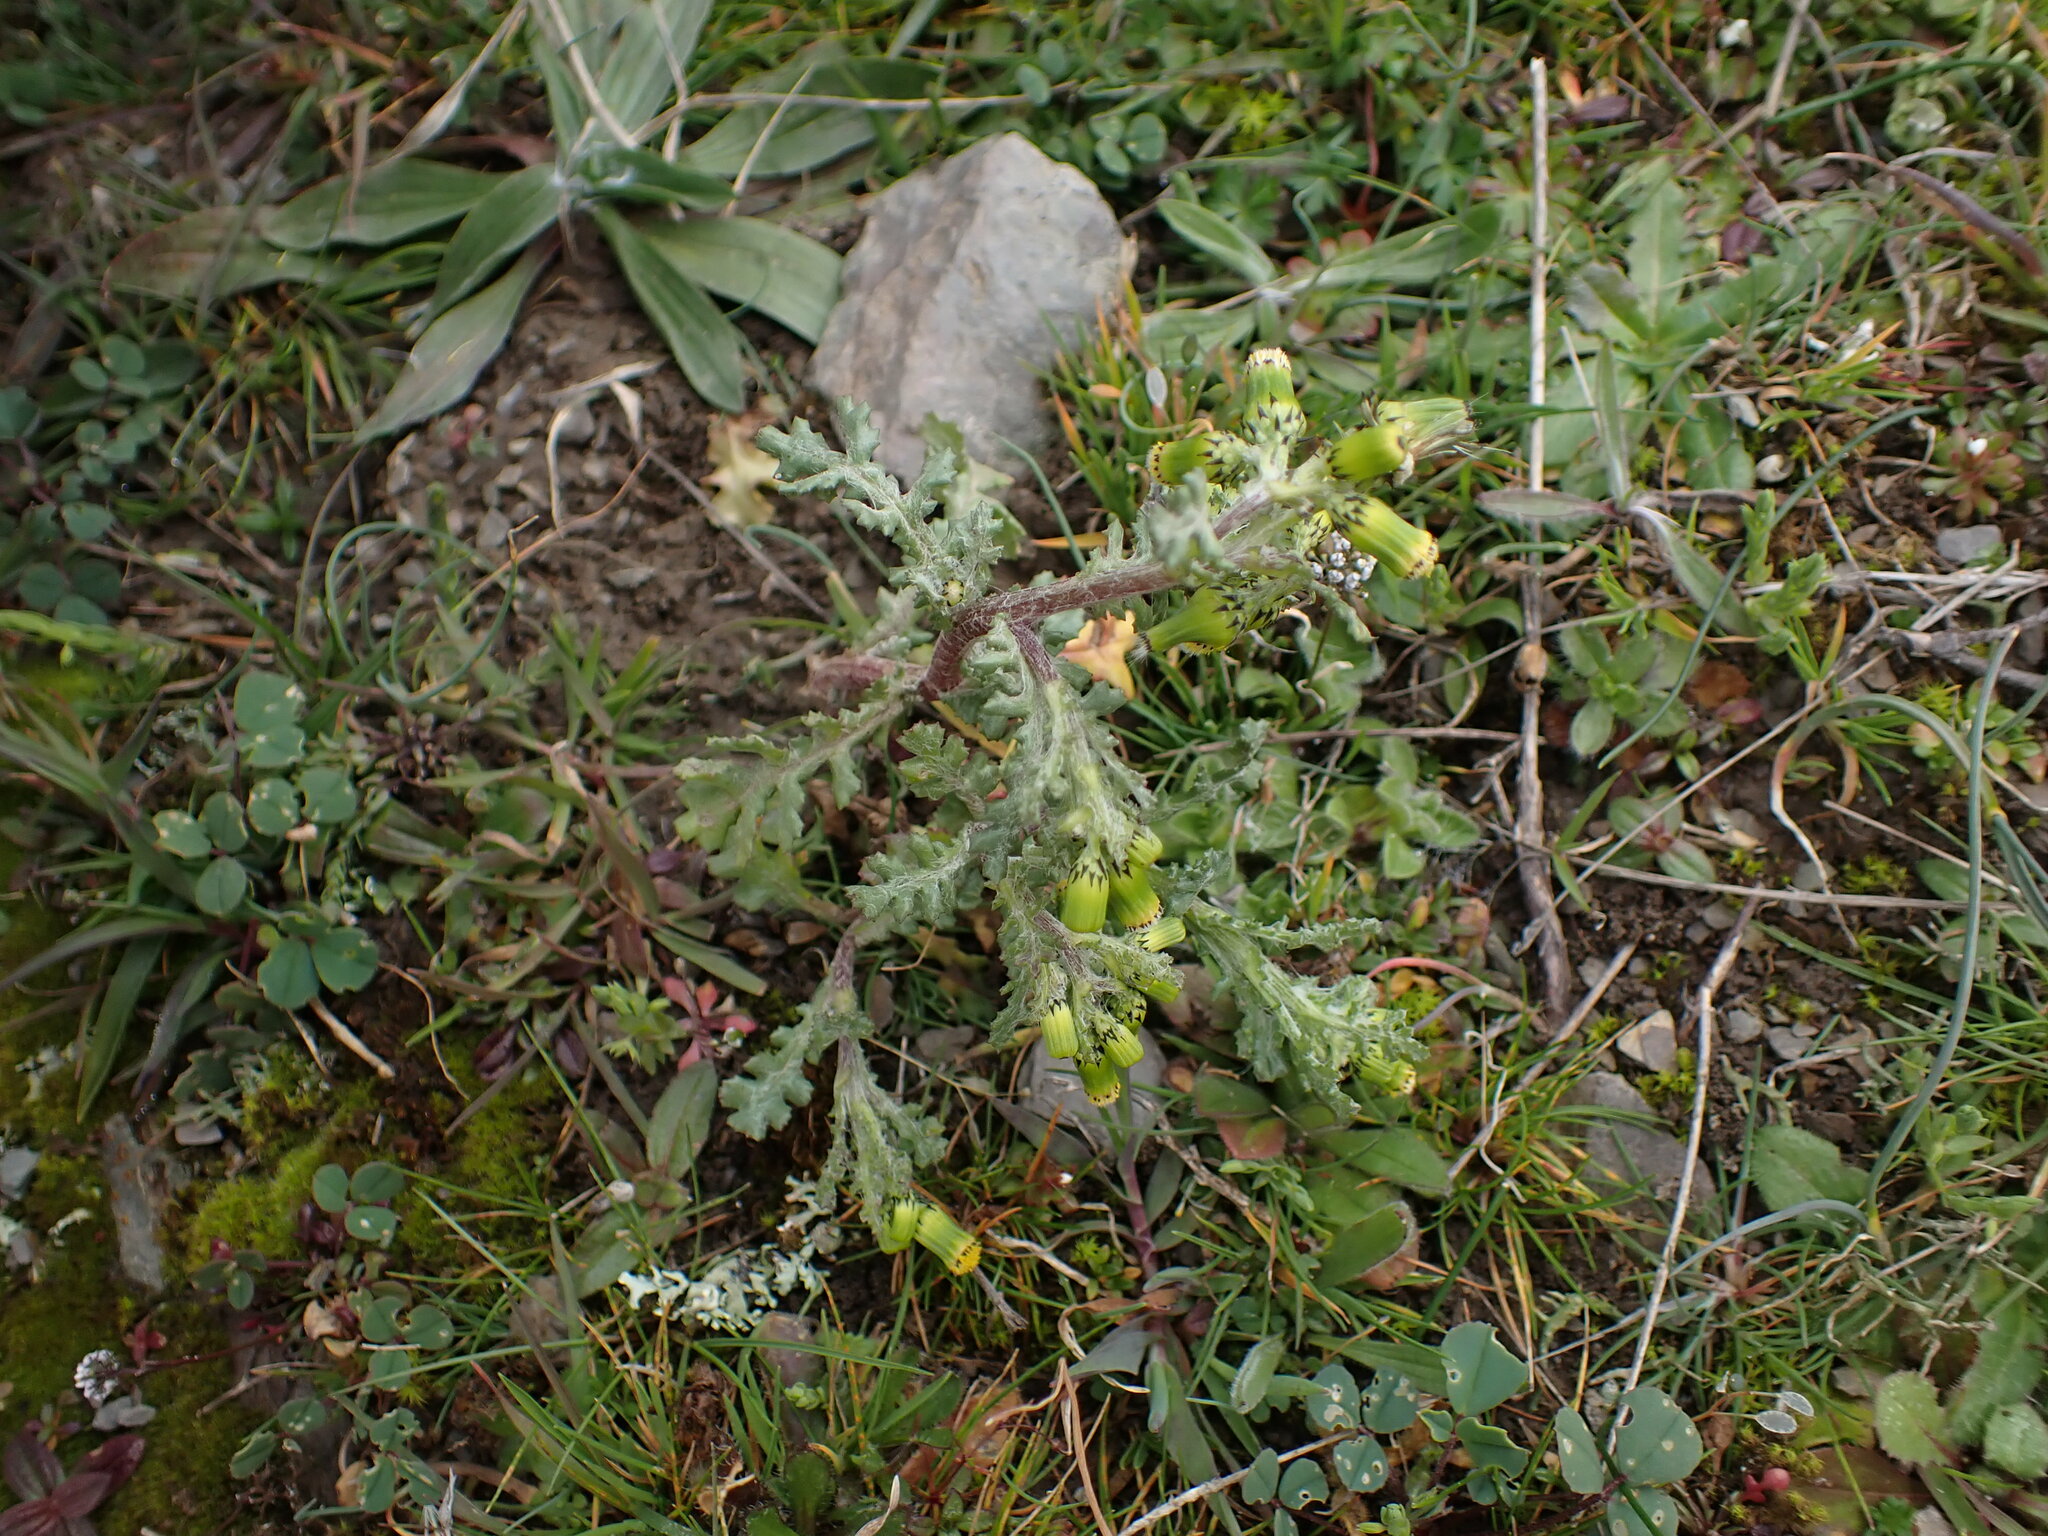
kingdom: Plantae
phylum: Tracheophyta
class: Magnoliopsida
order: Asterales
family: Asteraceae
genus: Senecio
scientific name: Senecio vulgaris
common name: Old-man-in-the-spring
